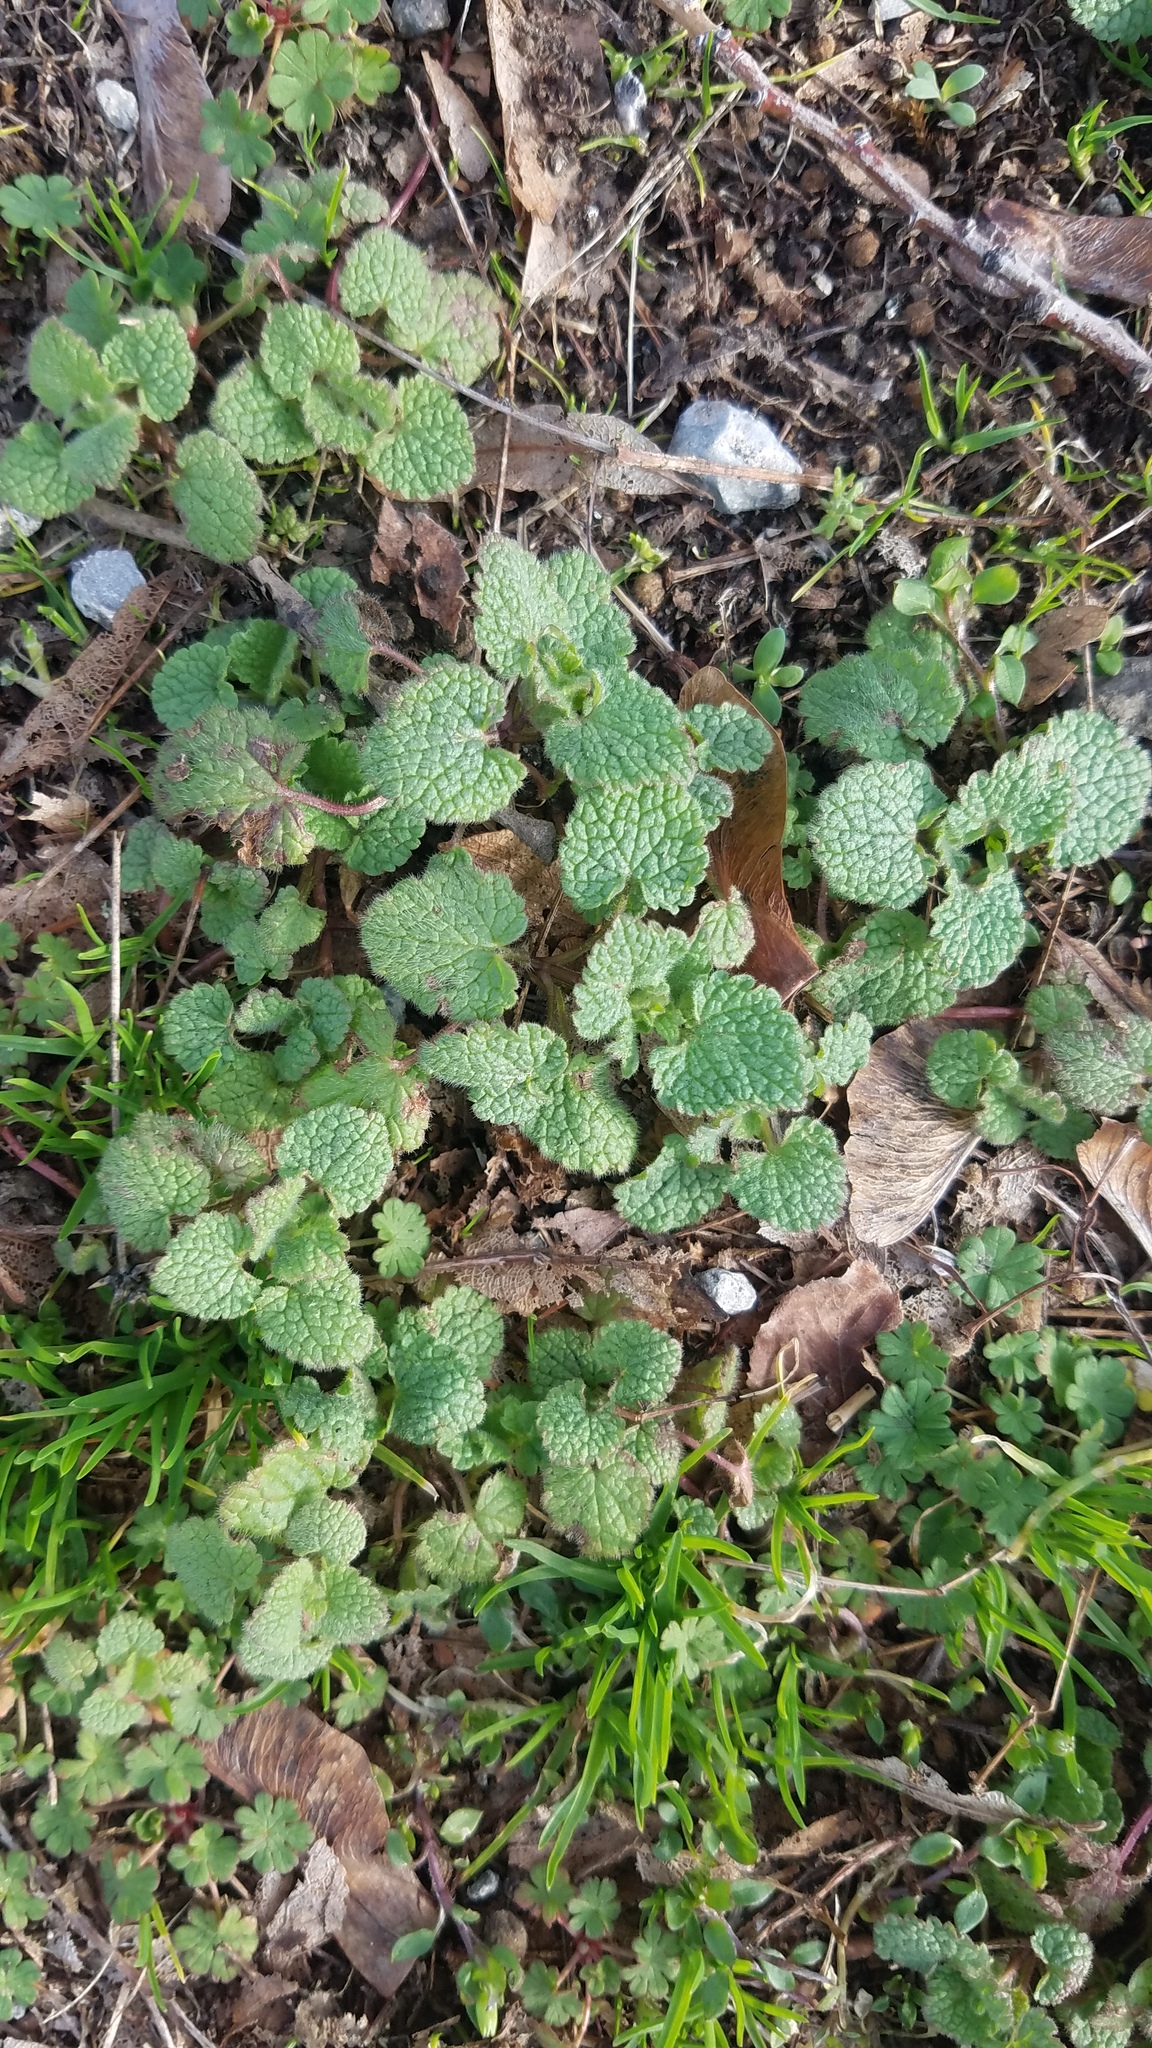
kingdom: Plantae
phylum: Tracheophyta
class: Magnoliopsida
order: Lamiales
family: Lamiaceae
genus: Lamium
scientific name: Lamium purpureum
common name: Red dead-nettle
